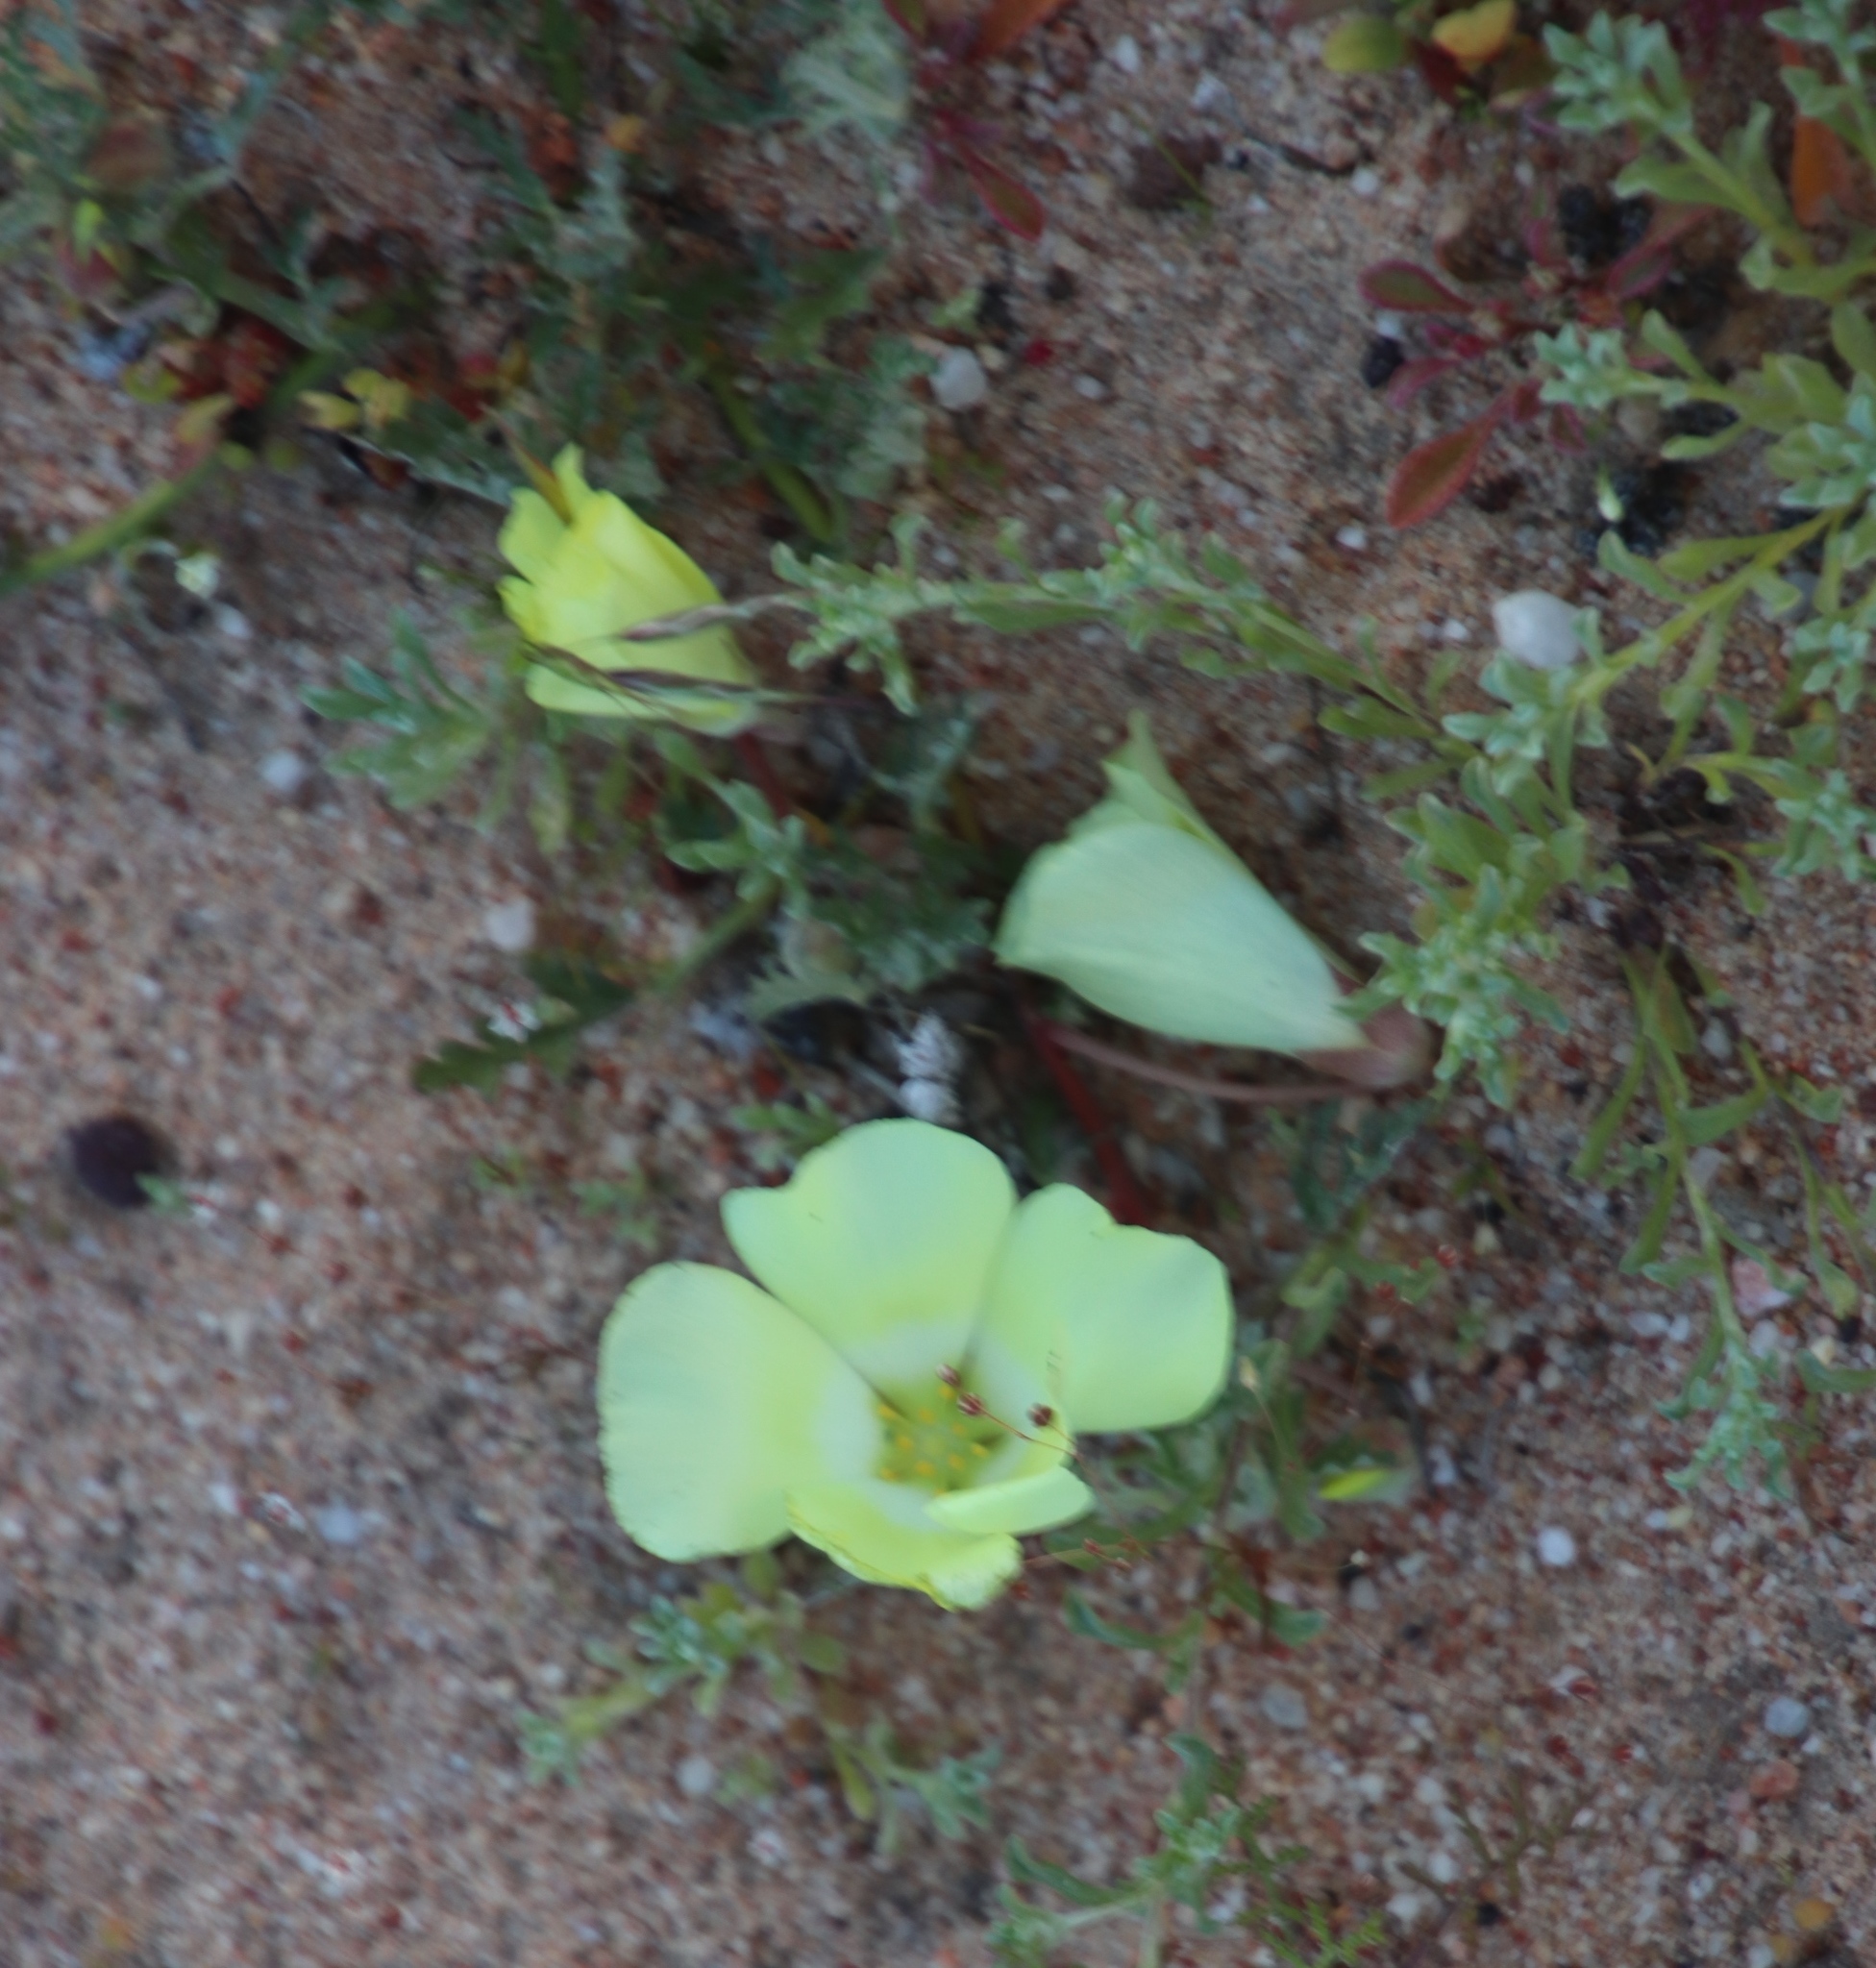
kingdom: Plantae
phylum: Tracheophyta
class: Magnoliopsida
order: Malvales
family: Neuradaceae
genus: Grielum
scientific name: Grielum humifusum
